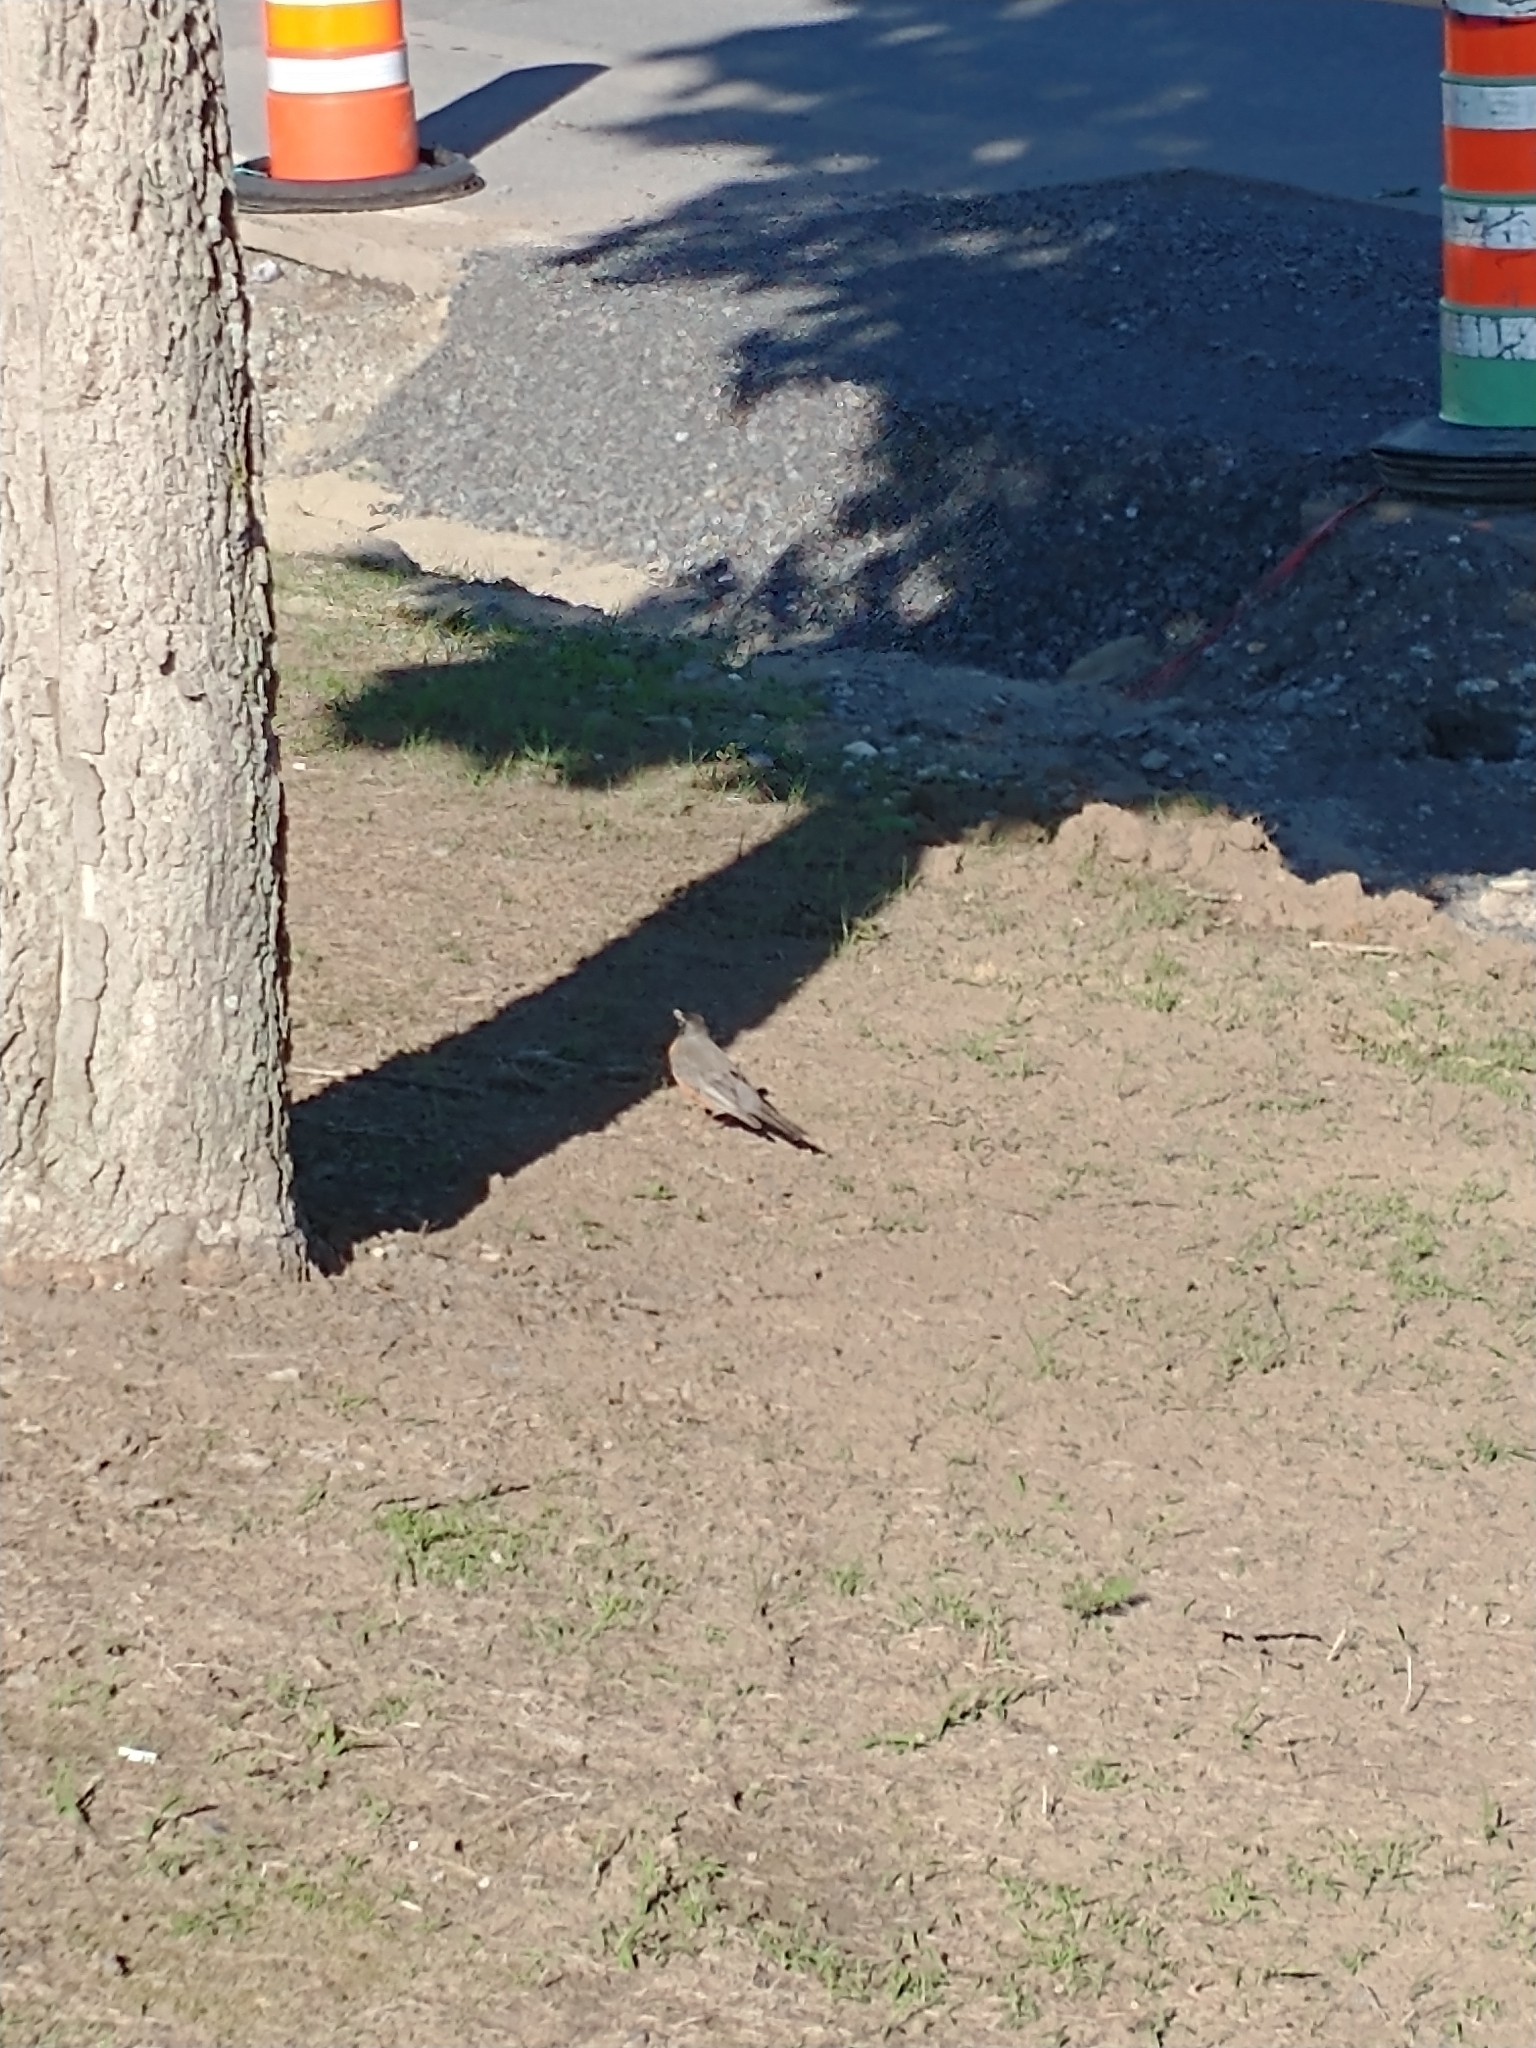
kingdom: Animalia
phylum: Chordata
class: Aves
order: Passeriformes
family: Turdidae
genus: Turdus
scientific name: Turdus migratorius
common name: American robin
